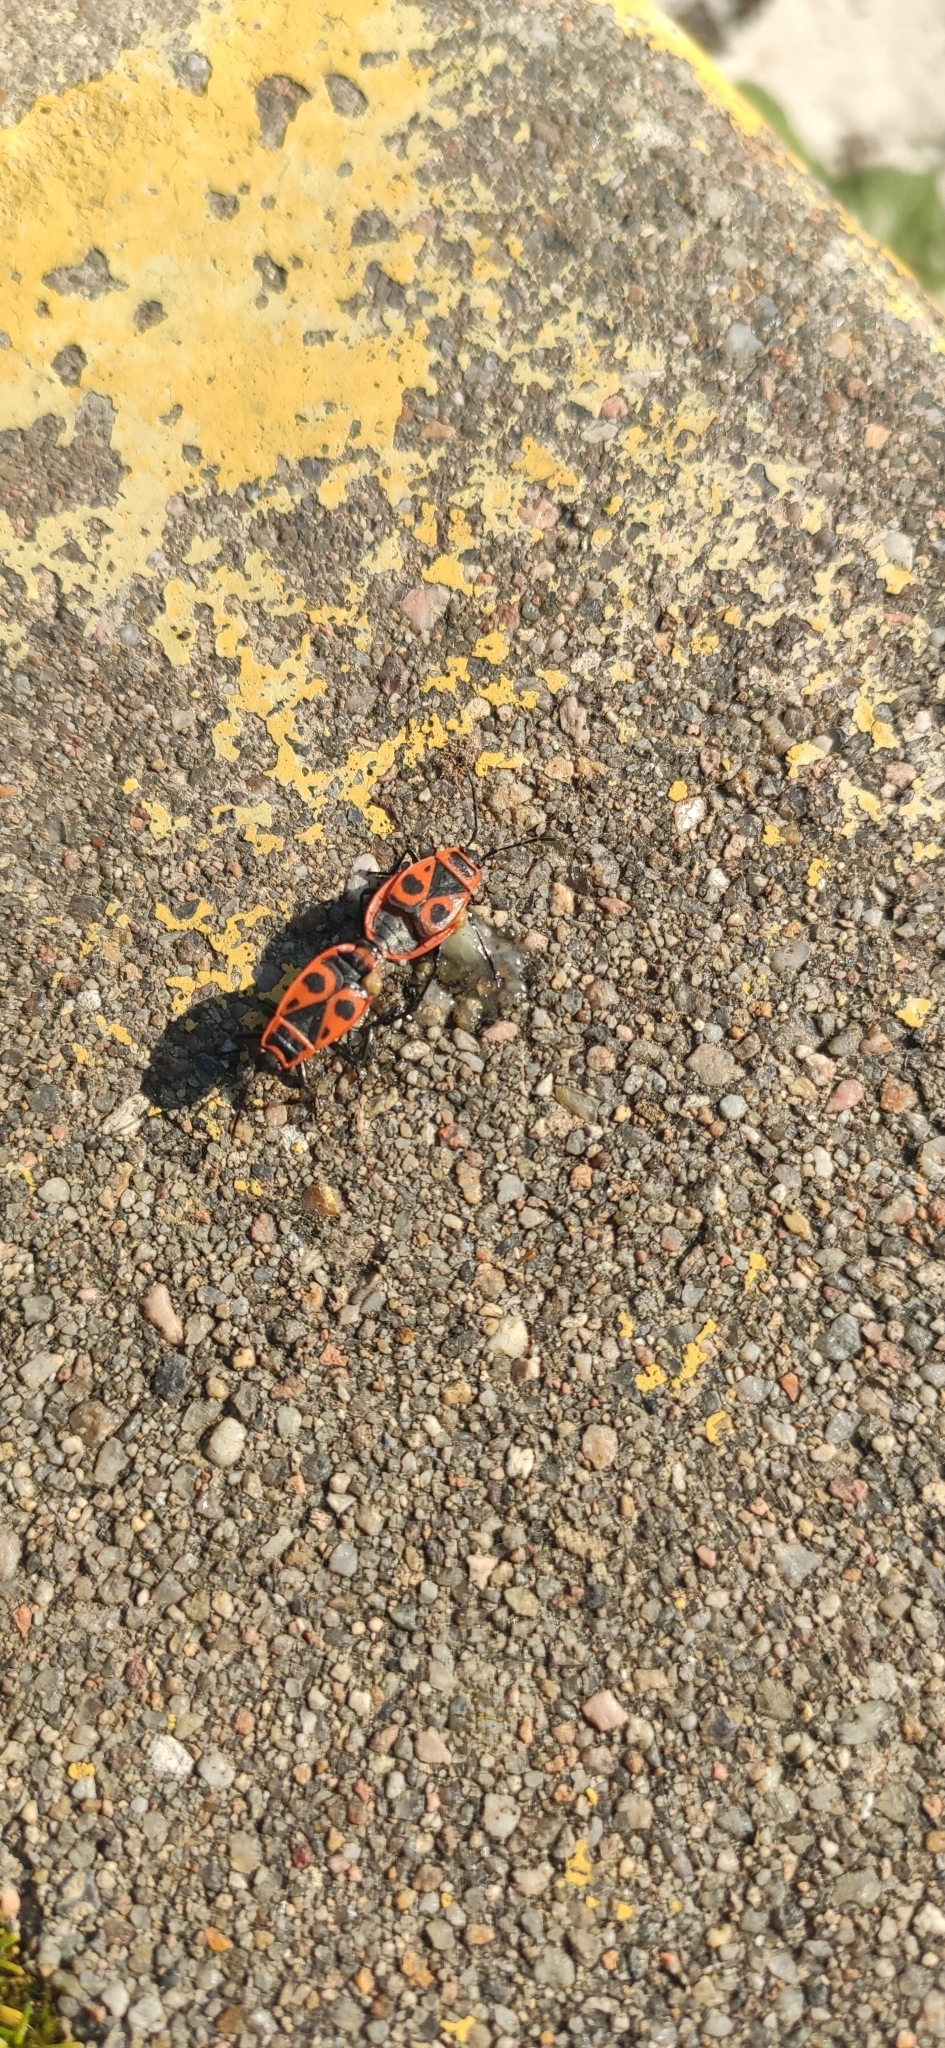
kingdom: Animalia
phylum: Arthropoda
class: Insecta
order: Hemiptera
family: Pyrrhocoridae
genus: Pyrrhocoris
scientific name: Pyrrhocoris apterus
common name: Firebug
